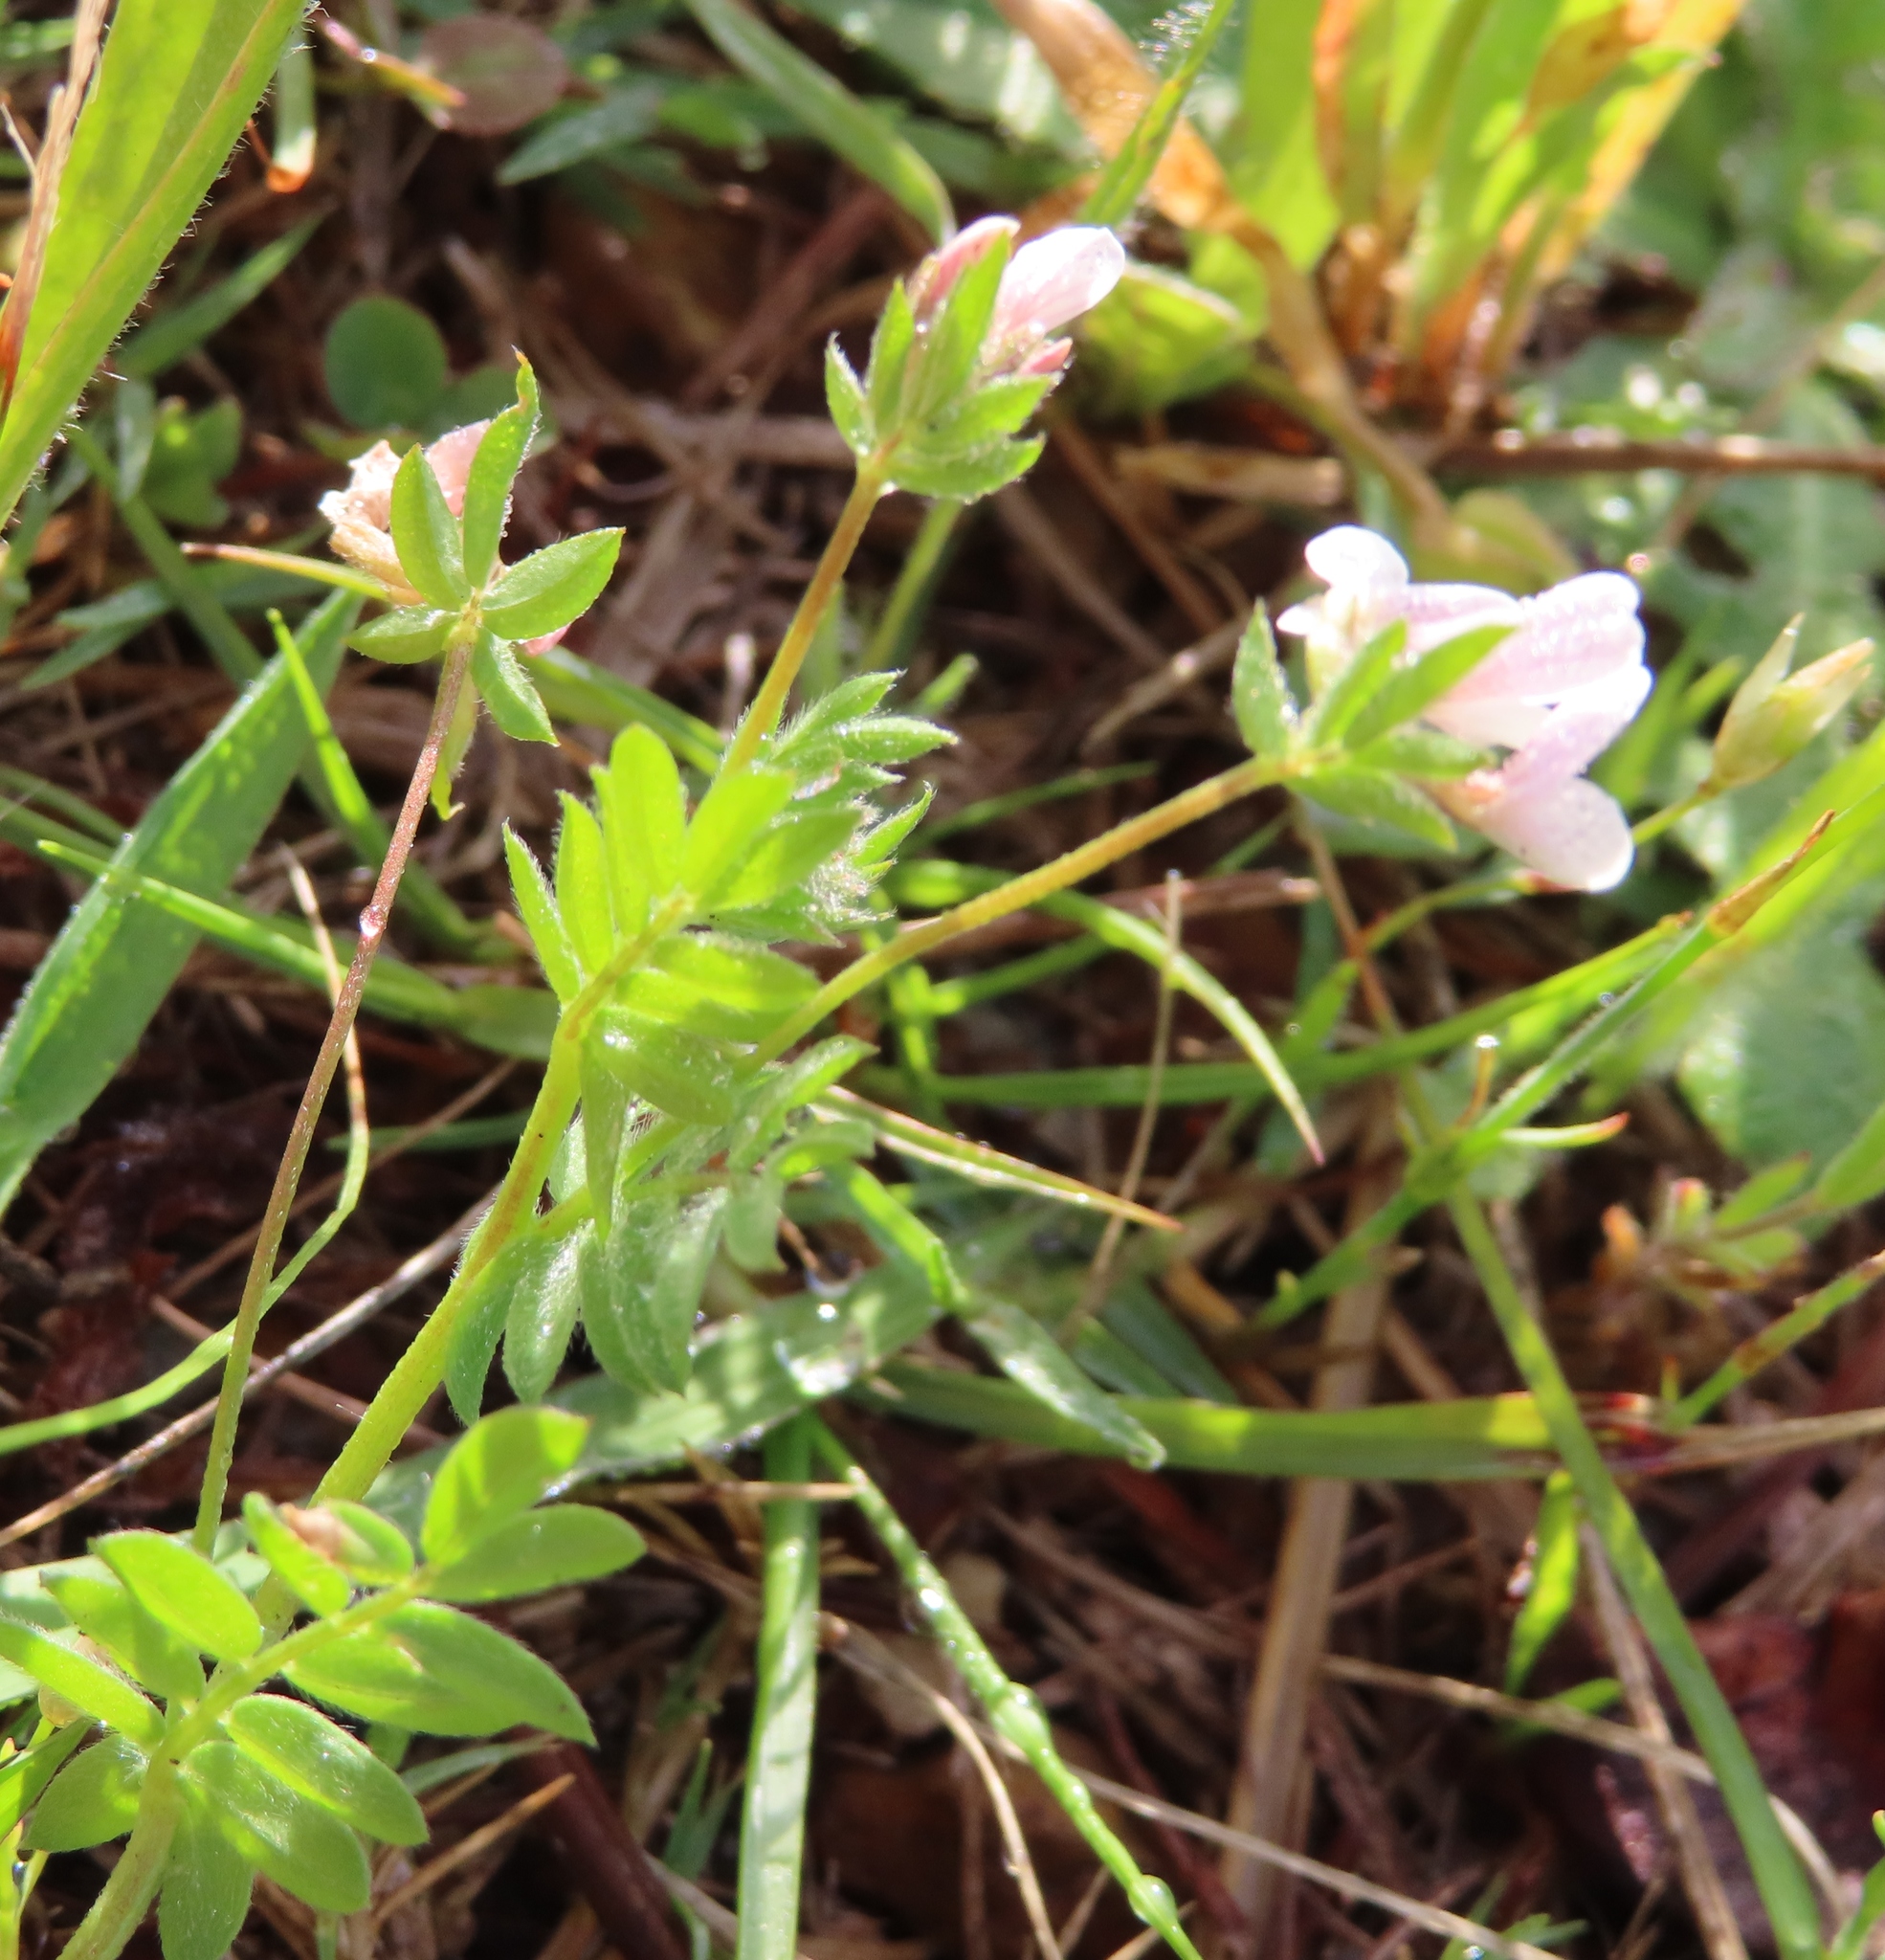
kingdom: Plantae
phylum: Tracheophyta
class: Magnoliopsida
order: Fabales
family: Fabaceae
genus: Ornithopus
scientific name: Ornithopus sativus
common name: Serradella
